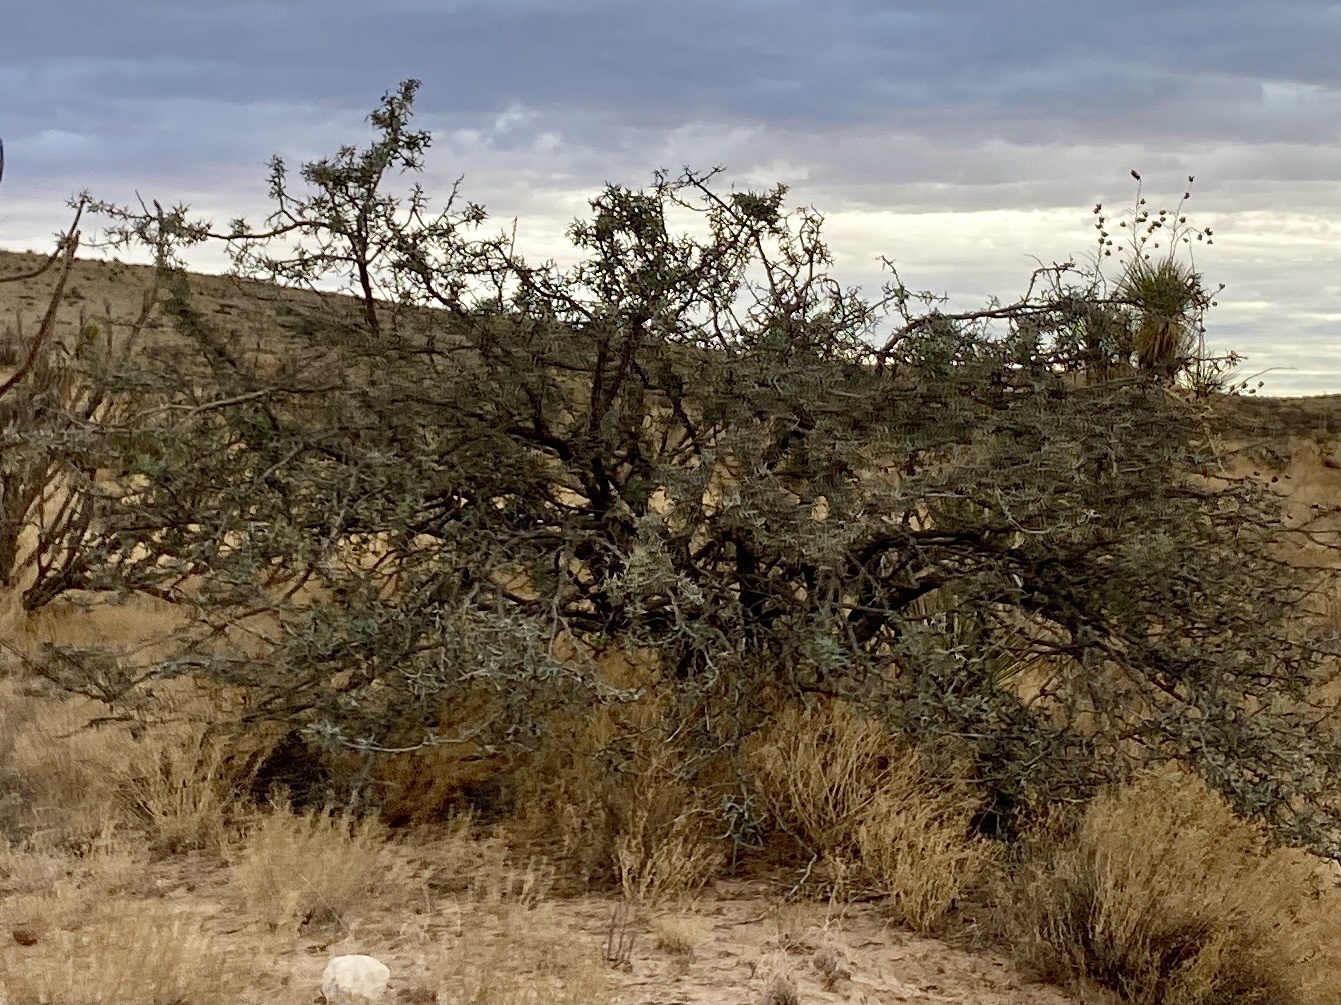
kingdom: Plantae
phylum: Tracheophyta
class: Magnoliopsida
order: Fabales
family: Fabaceae
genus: Prosopis
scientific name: Prosopis glandulosa
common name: Honey mesquite
